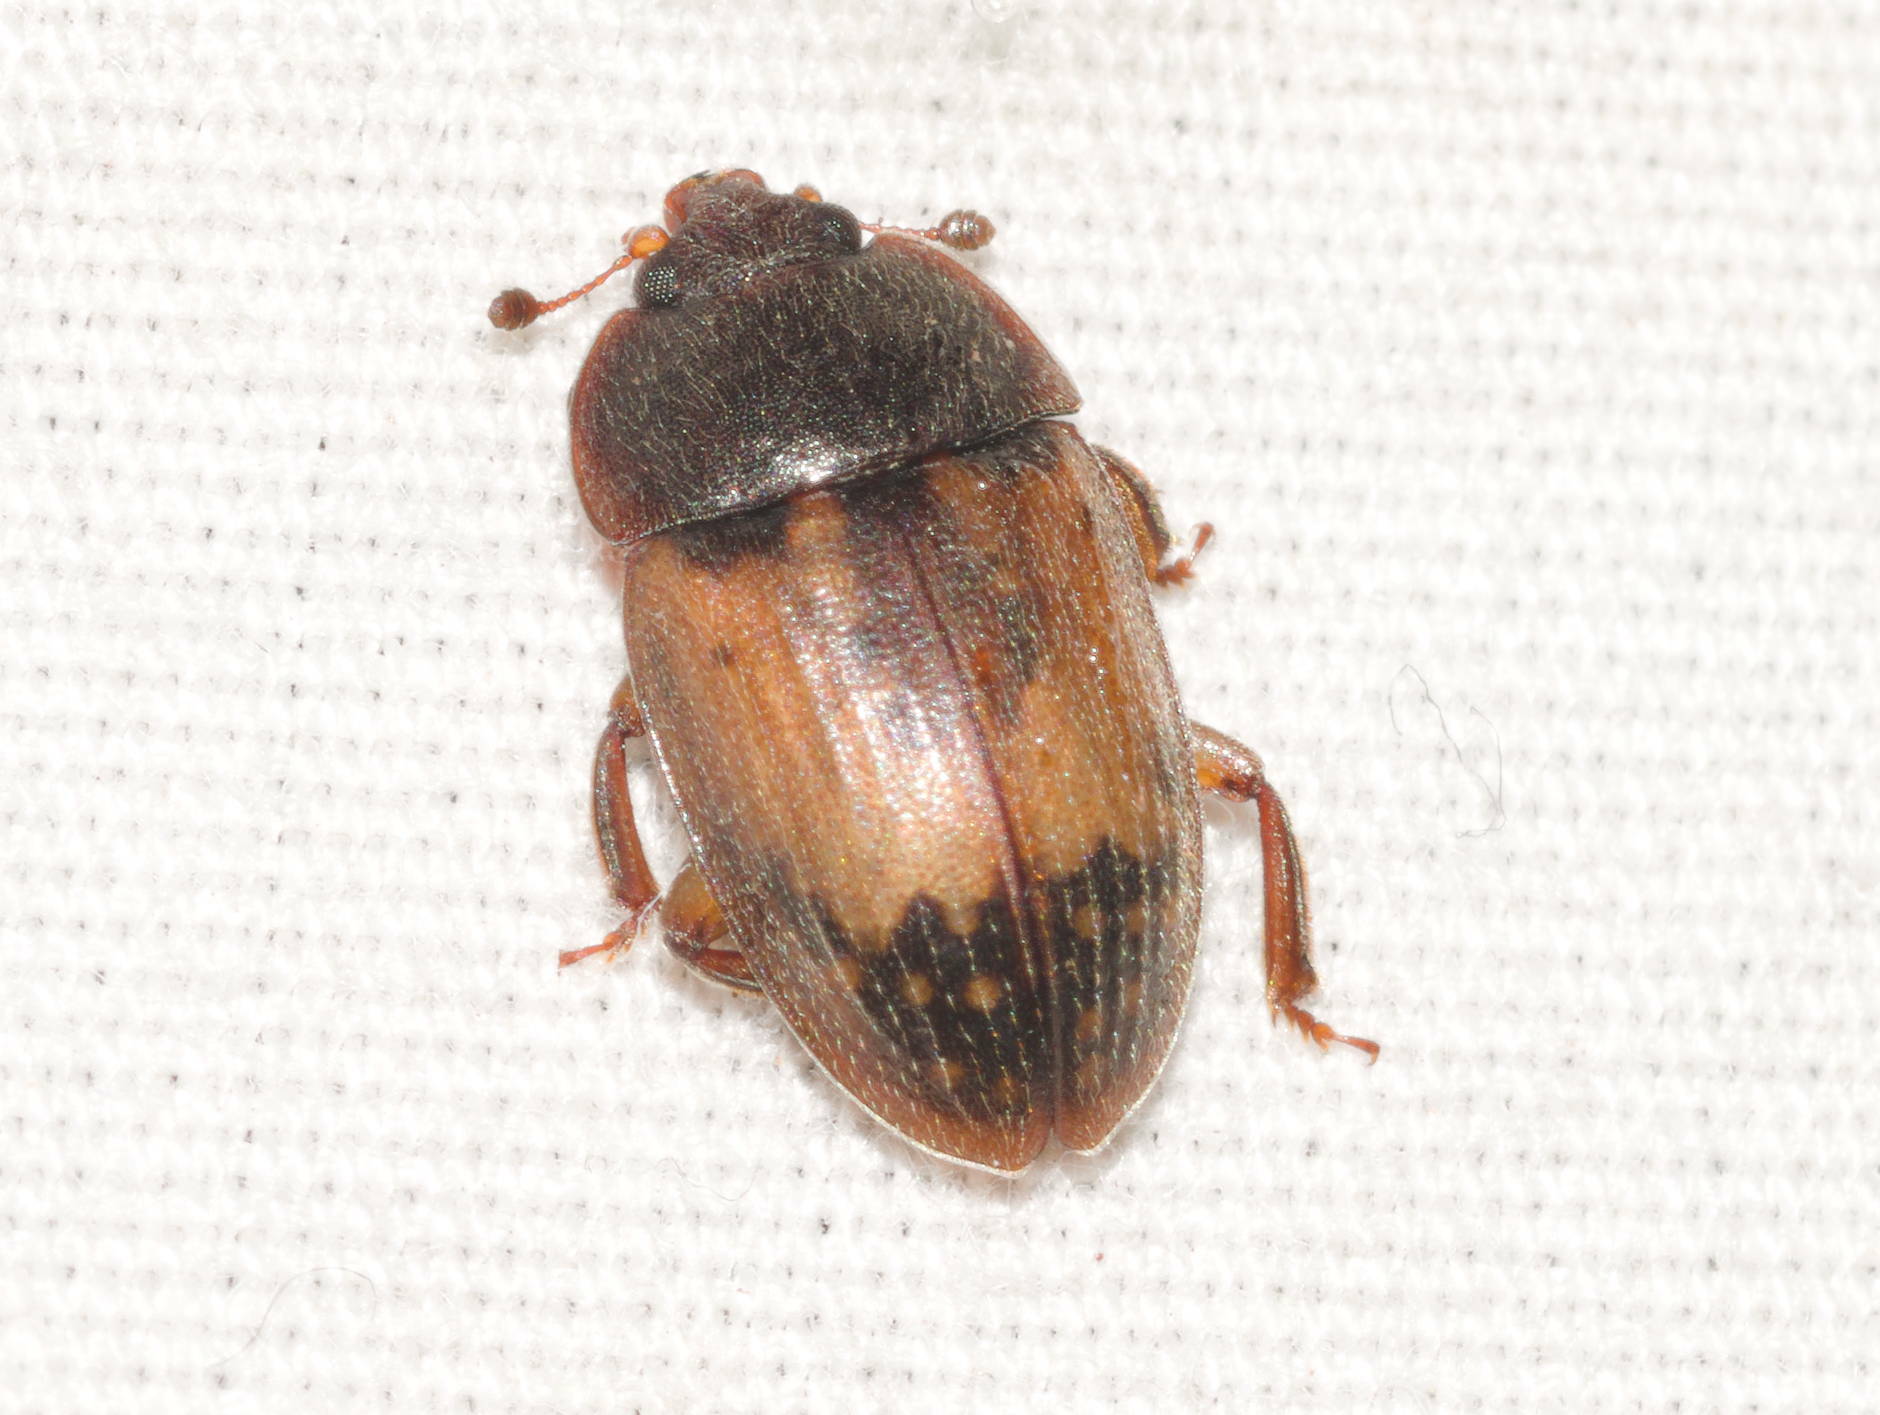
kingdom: Animalia
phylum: Arthropoda
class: Insecta
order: Coleoptera
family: Nitidulidae
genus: Lasiodites
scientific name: Lasiodites
